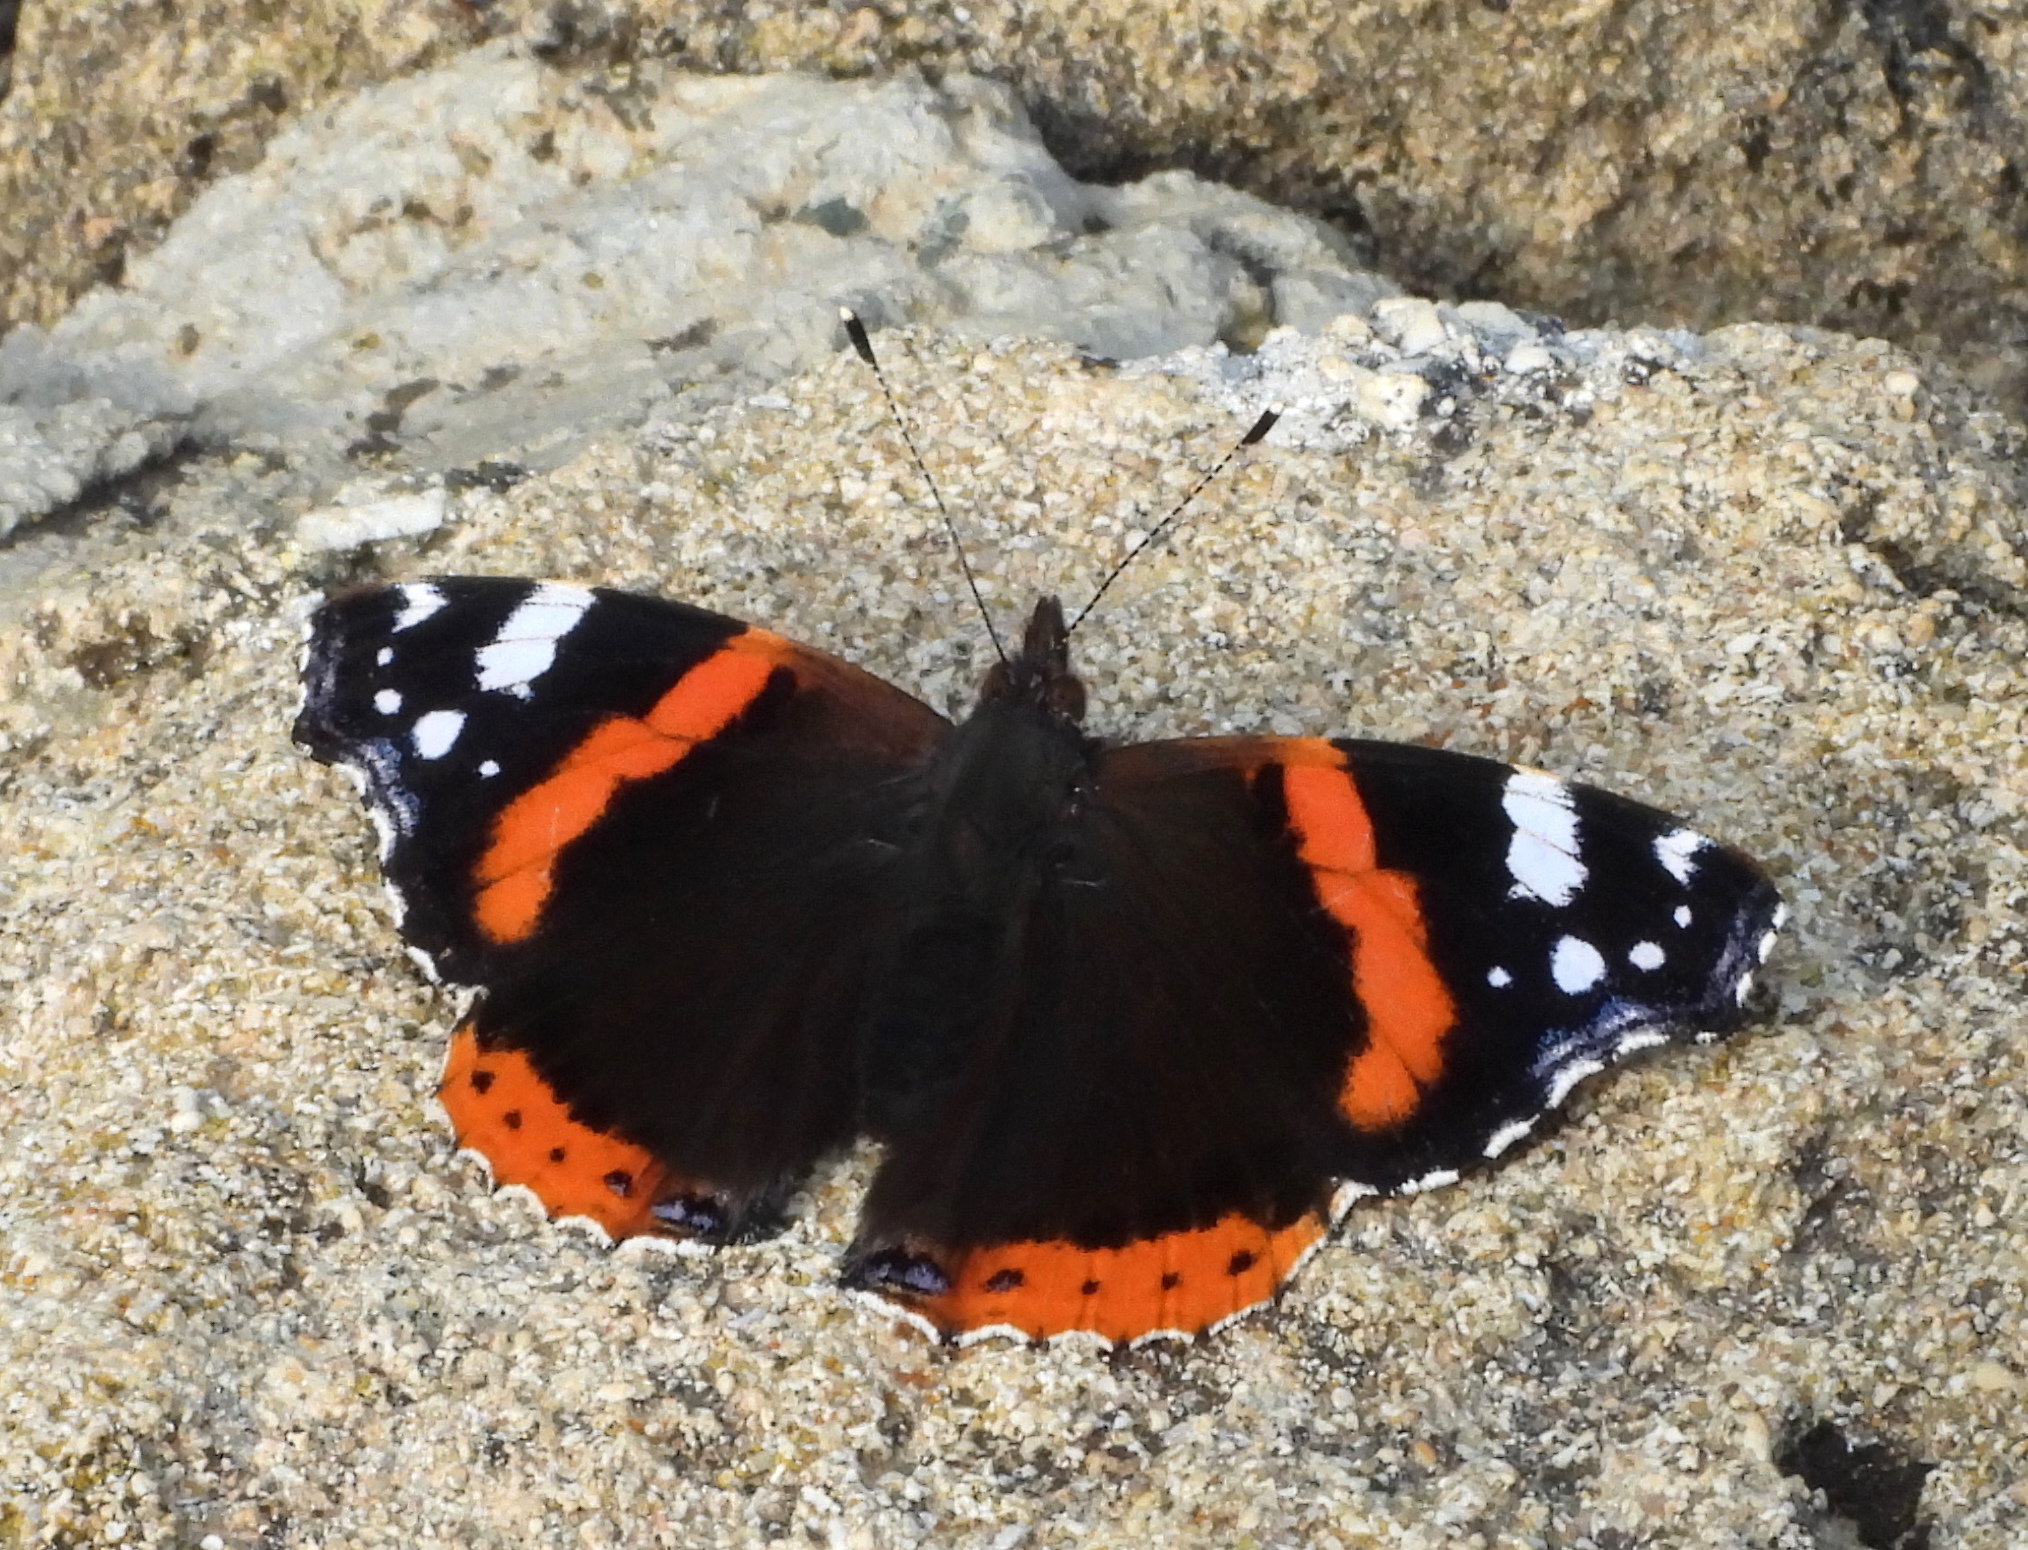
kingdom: Animalia
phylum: Arthropoda
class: Insecta
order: Lepidoptera
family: Nymphalidae
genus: Vanessa
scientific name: Vanessa atalanta
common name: Red admiral
